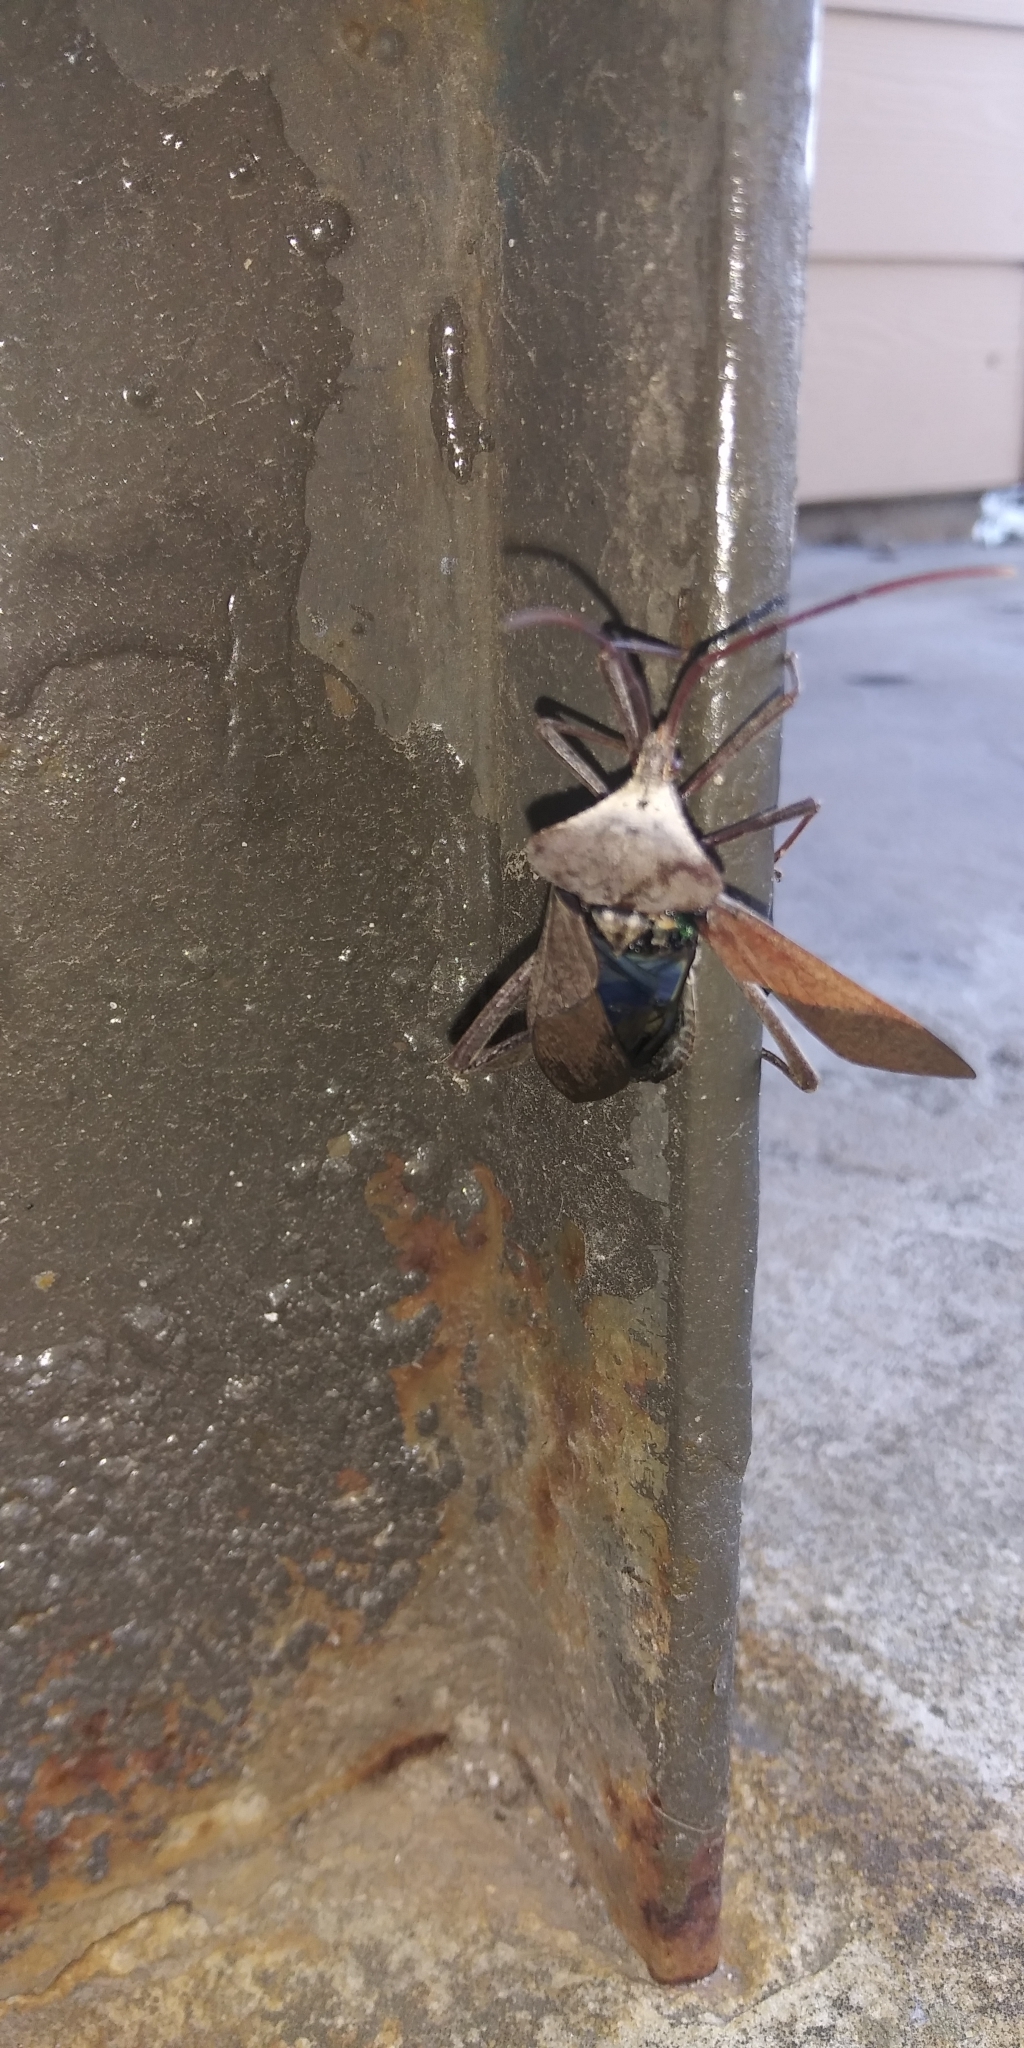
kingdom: Animalia
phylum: Arthropoda
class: Insecta
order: Hemiptera
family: Coreidae
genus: Acanthocephala
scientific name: Acanthocephala declivis
